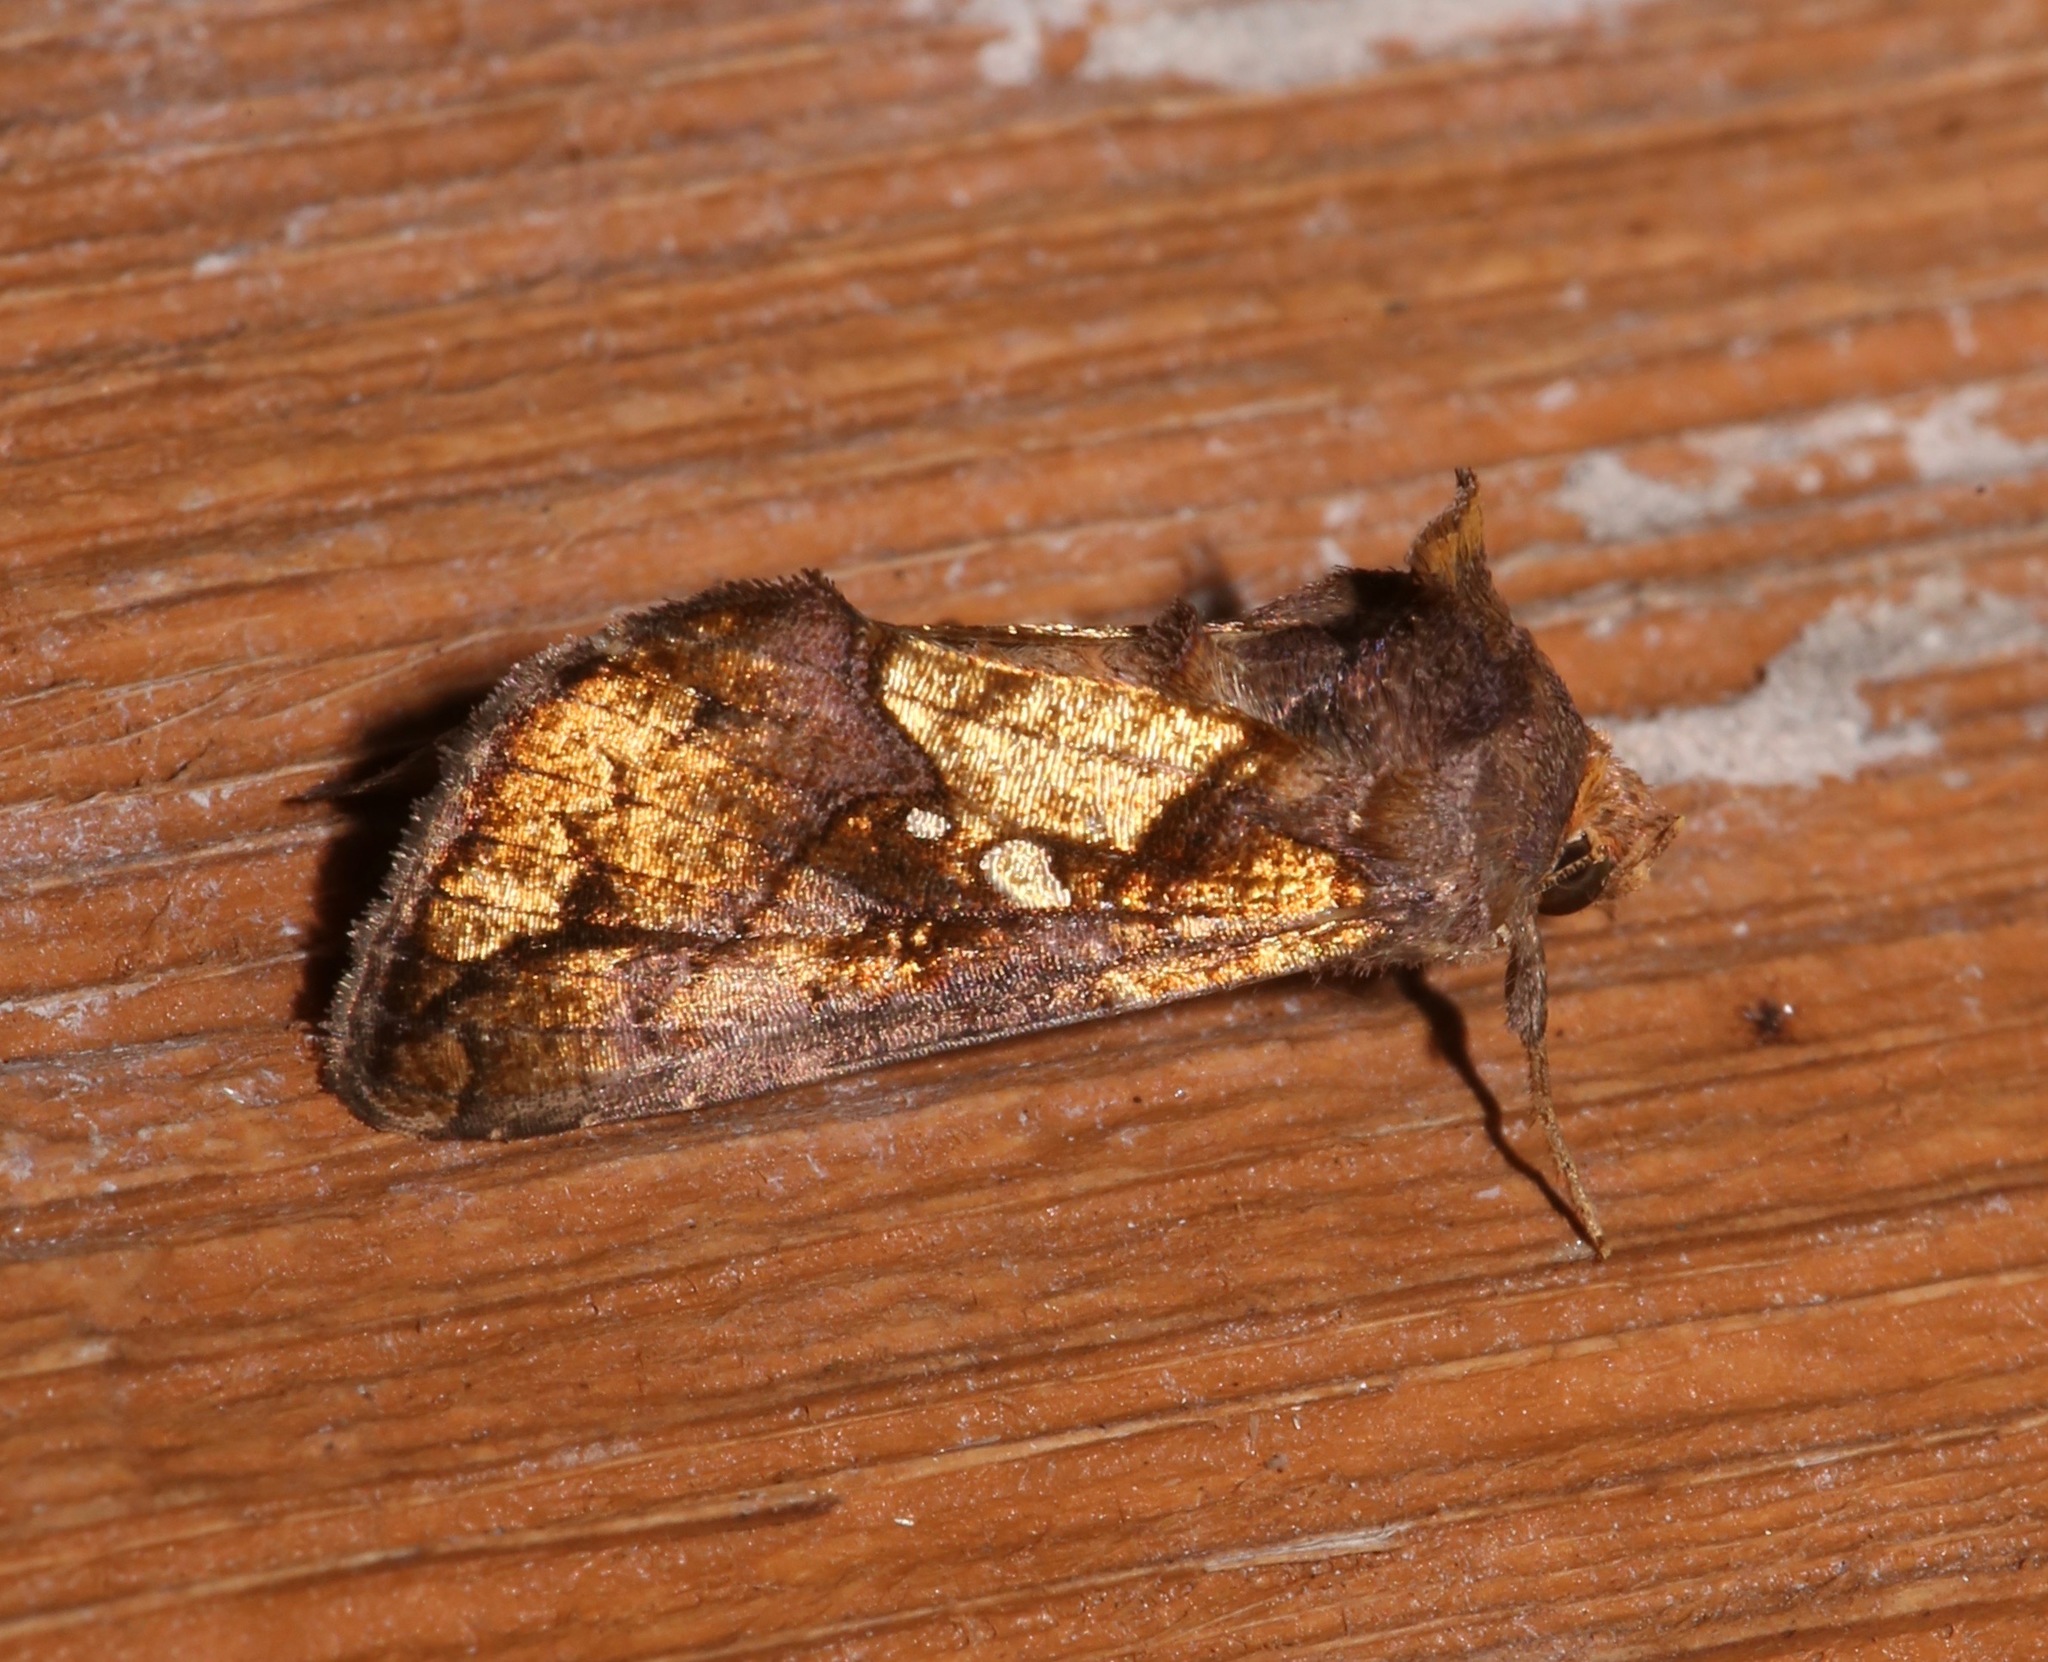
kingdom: Animalia
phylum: Arthropoda
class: Insecta
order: Lepidoptera
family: Noctuidae
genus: Argyrogramma
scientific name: Argyrogramma verruca
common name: Golden looper moth
